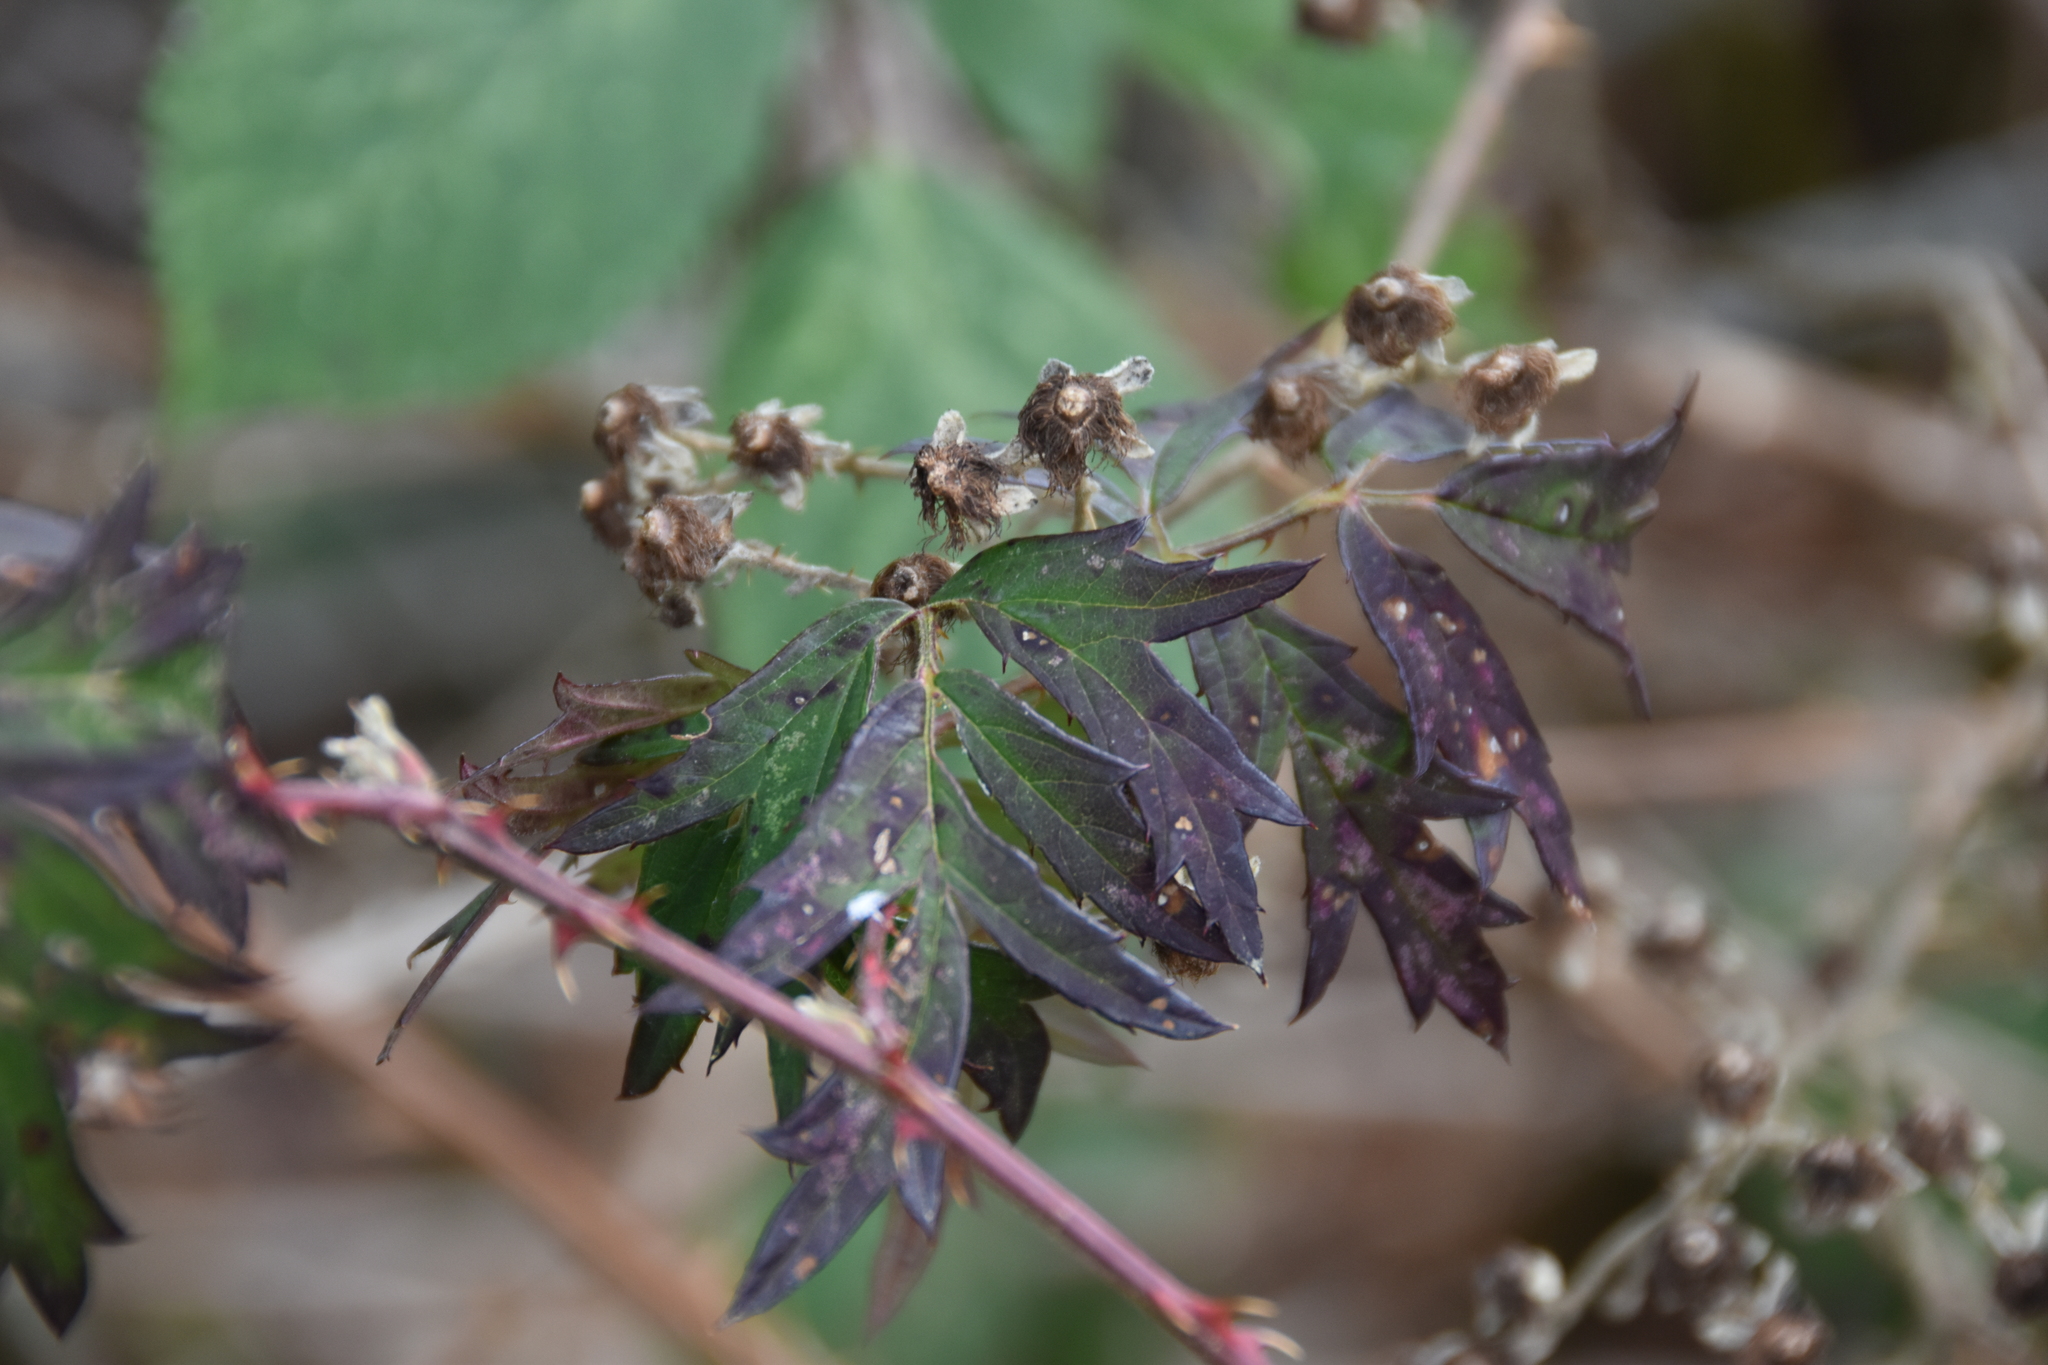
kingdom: Plantae
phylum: Tracheophyta
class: Magnoliopsida
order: Rosales
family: Rosaceae
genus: Rubus
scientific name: Rubus laciniatus
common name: Evergreen blackberry
